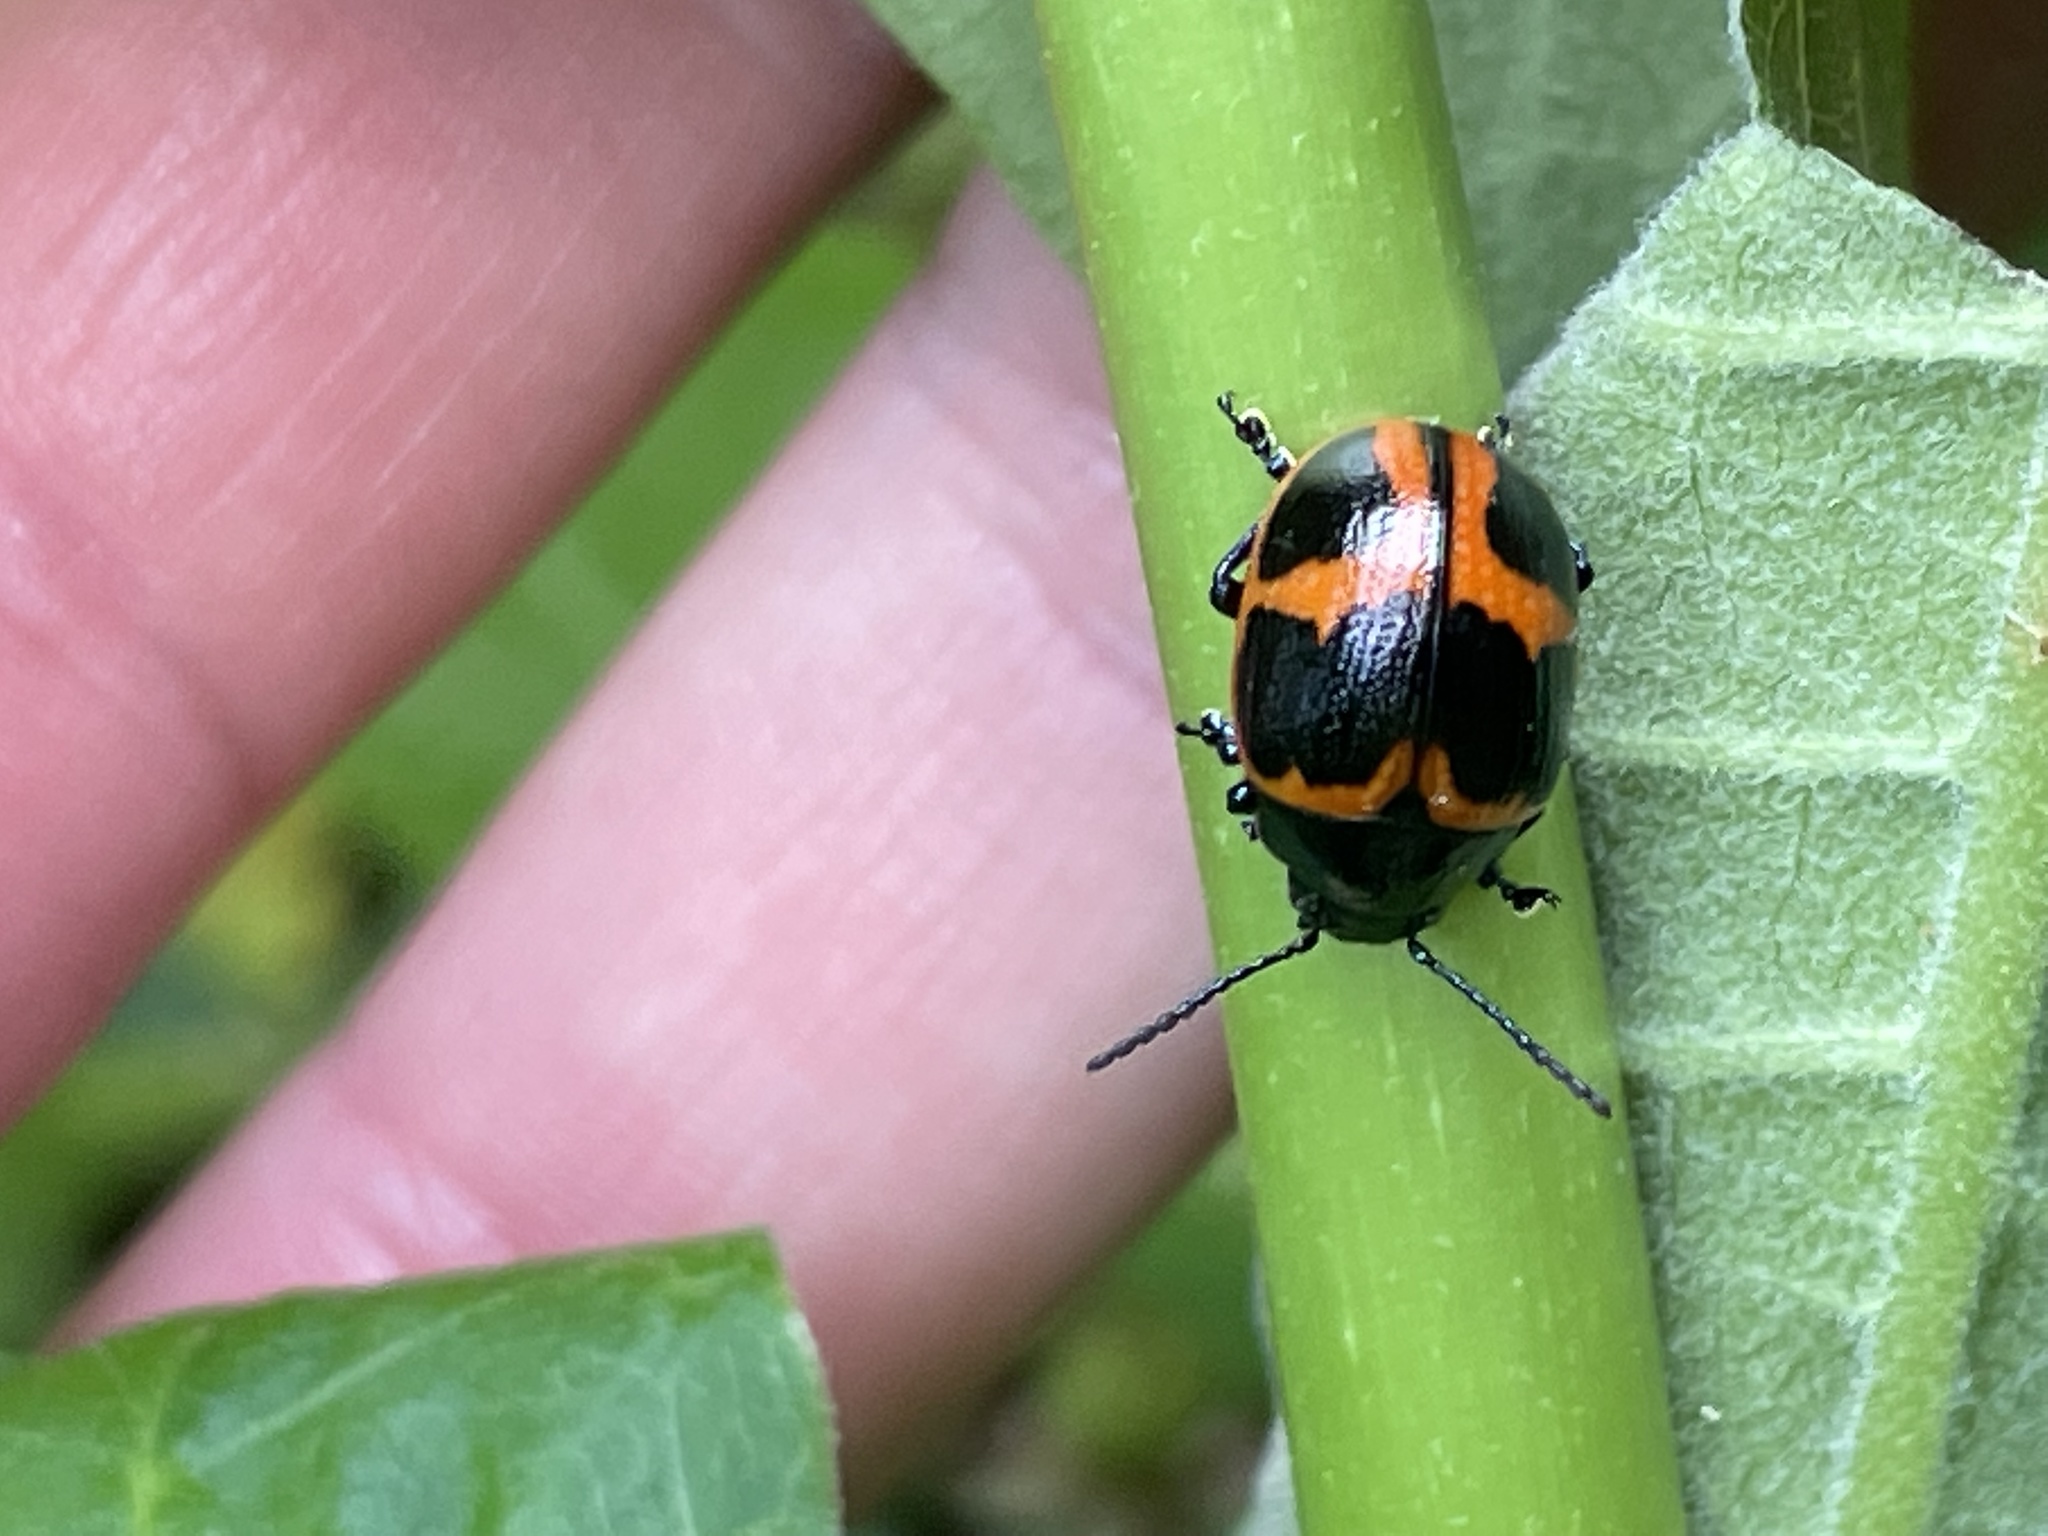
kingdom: Animalia
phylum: Arthropoda
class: Insecta
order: Coleoptera
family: Chrysomelidae
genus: Labidomera
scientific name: Labidomera clivicollis
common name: Swamp milkweed leaf beetle
